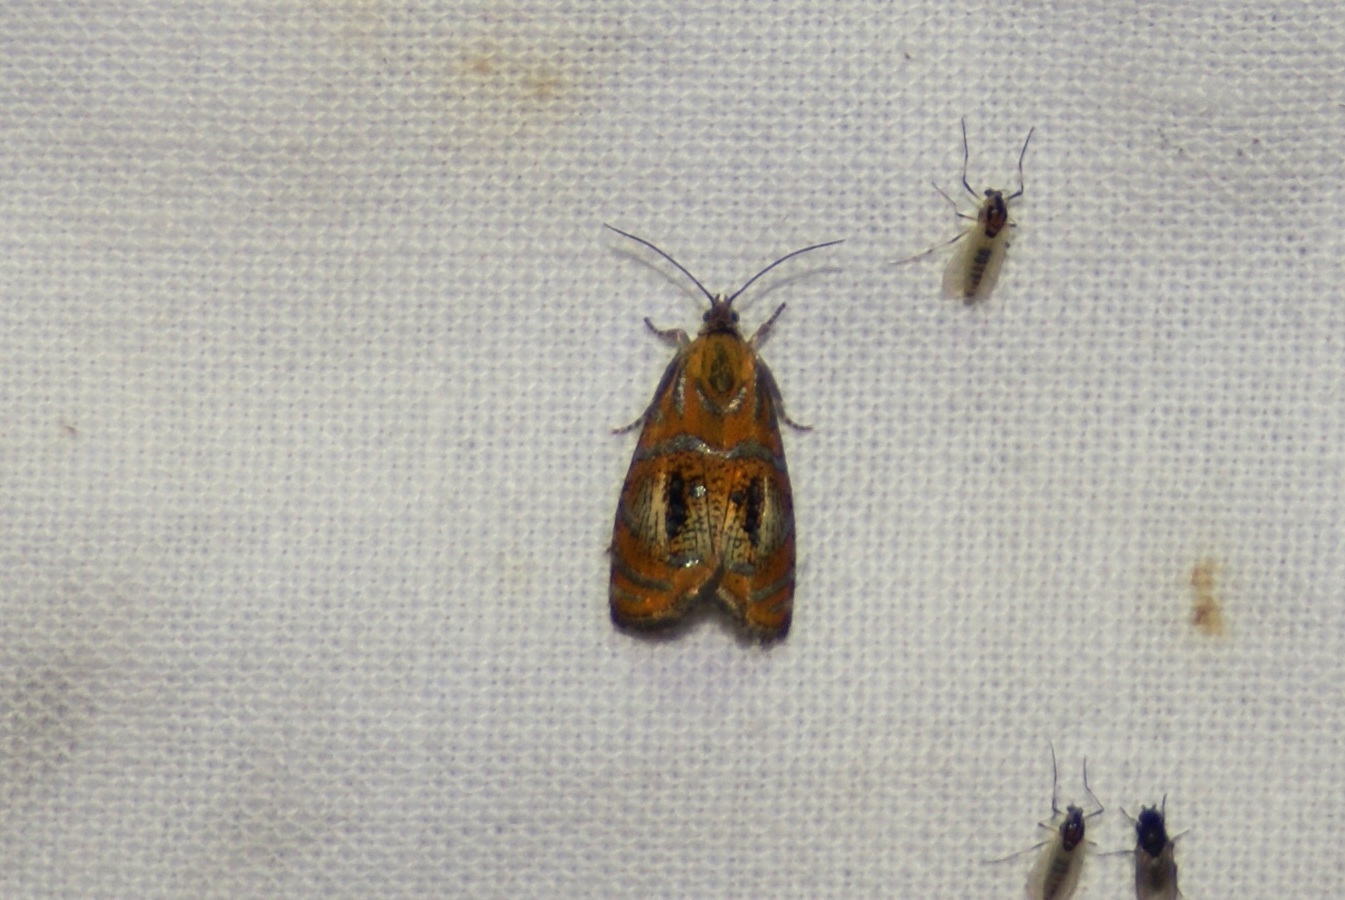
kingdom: Animalia
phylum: Arthropoda
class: Insecta
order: Lepidoptera
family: Tortricidae
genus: Olethreutes
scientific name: Olethreutes arcuella
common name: Arched marble
